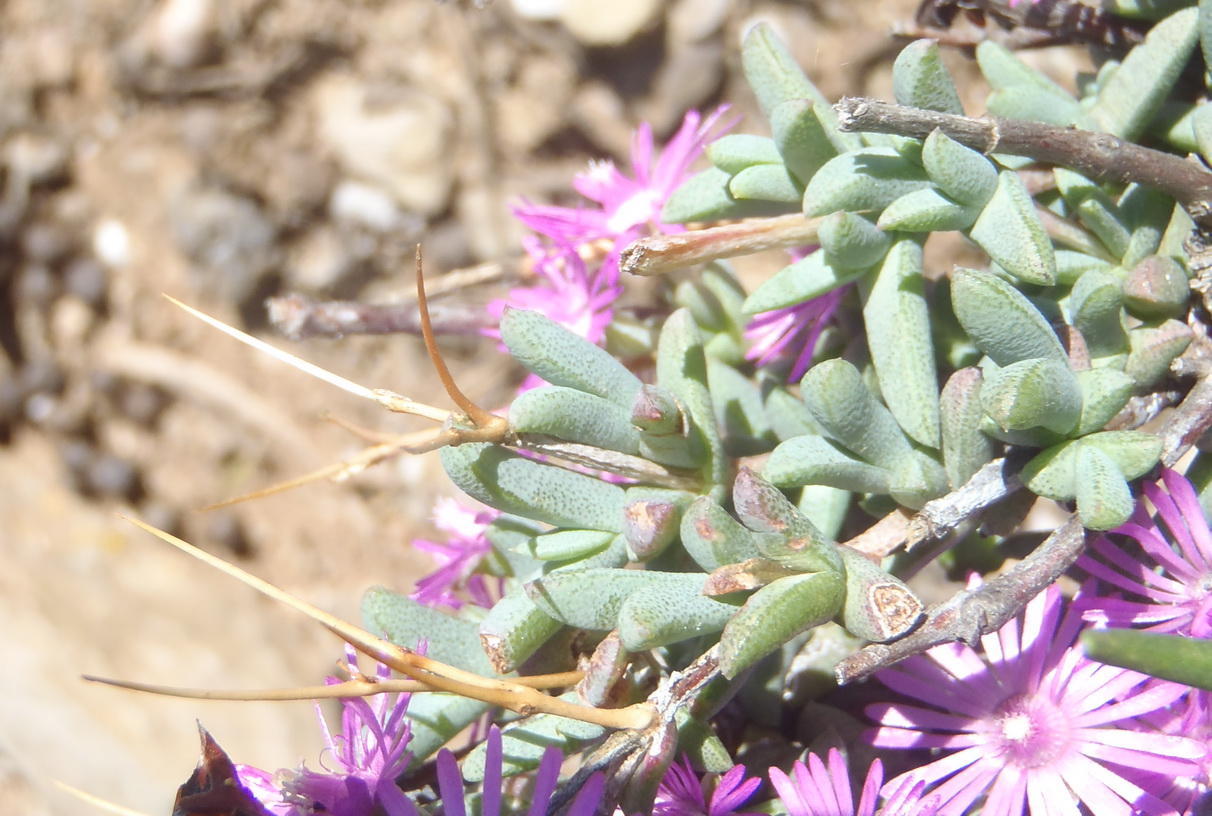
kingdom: Plantae
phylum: Tracheophyta
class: Magnoliopsida
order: Caryophyllales
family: Aizoaceae
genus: Ruschia
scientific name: Ruschia cradockensis
